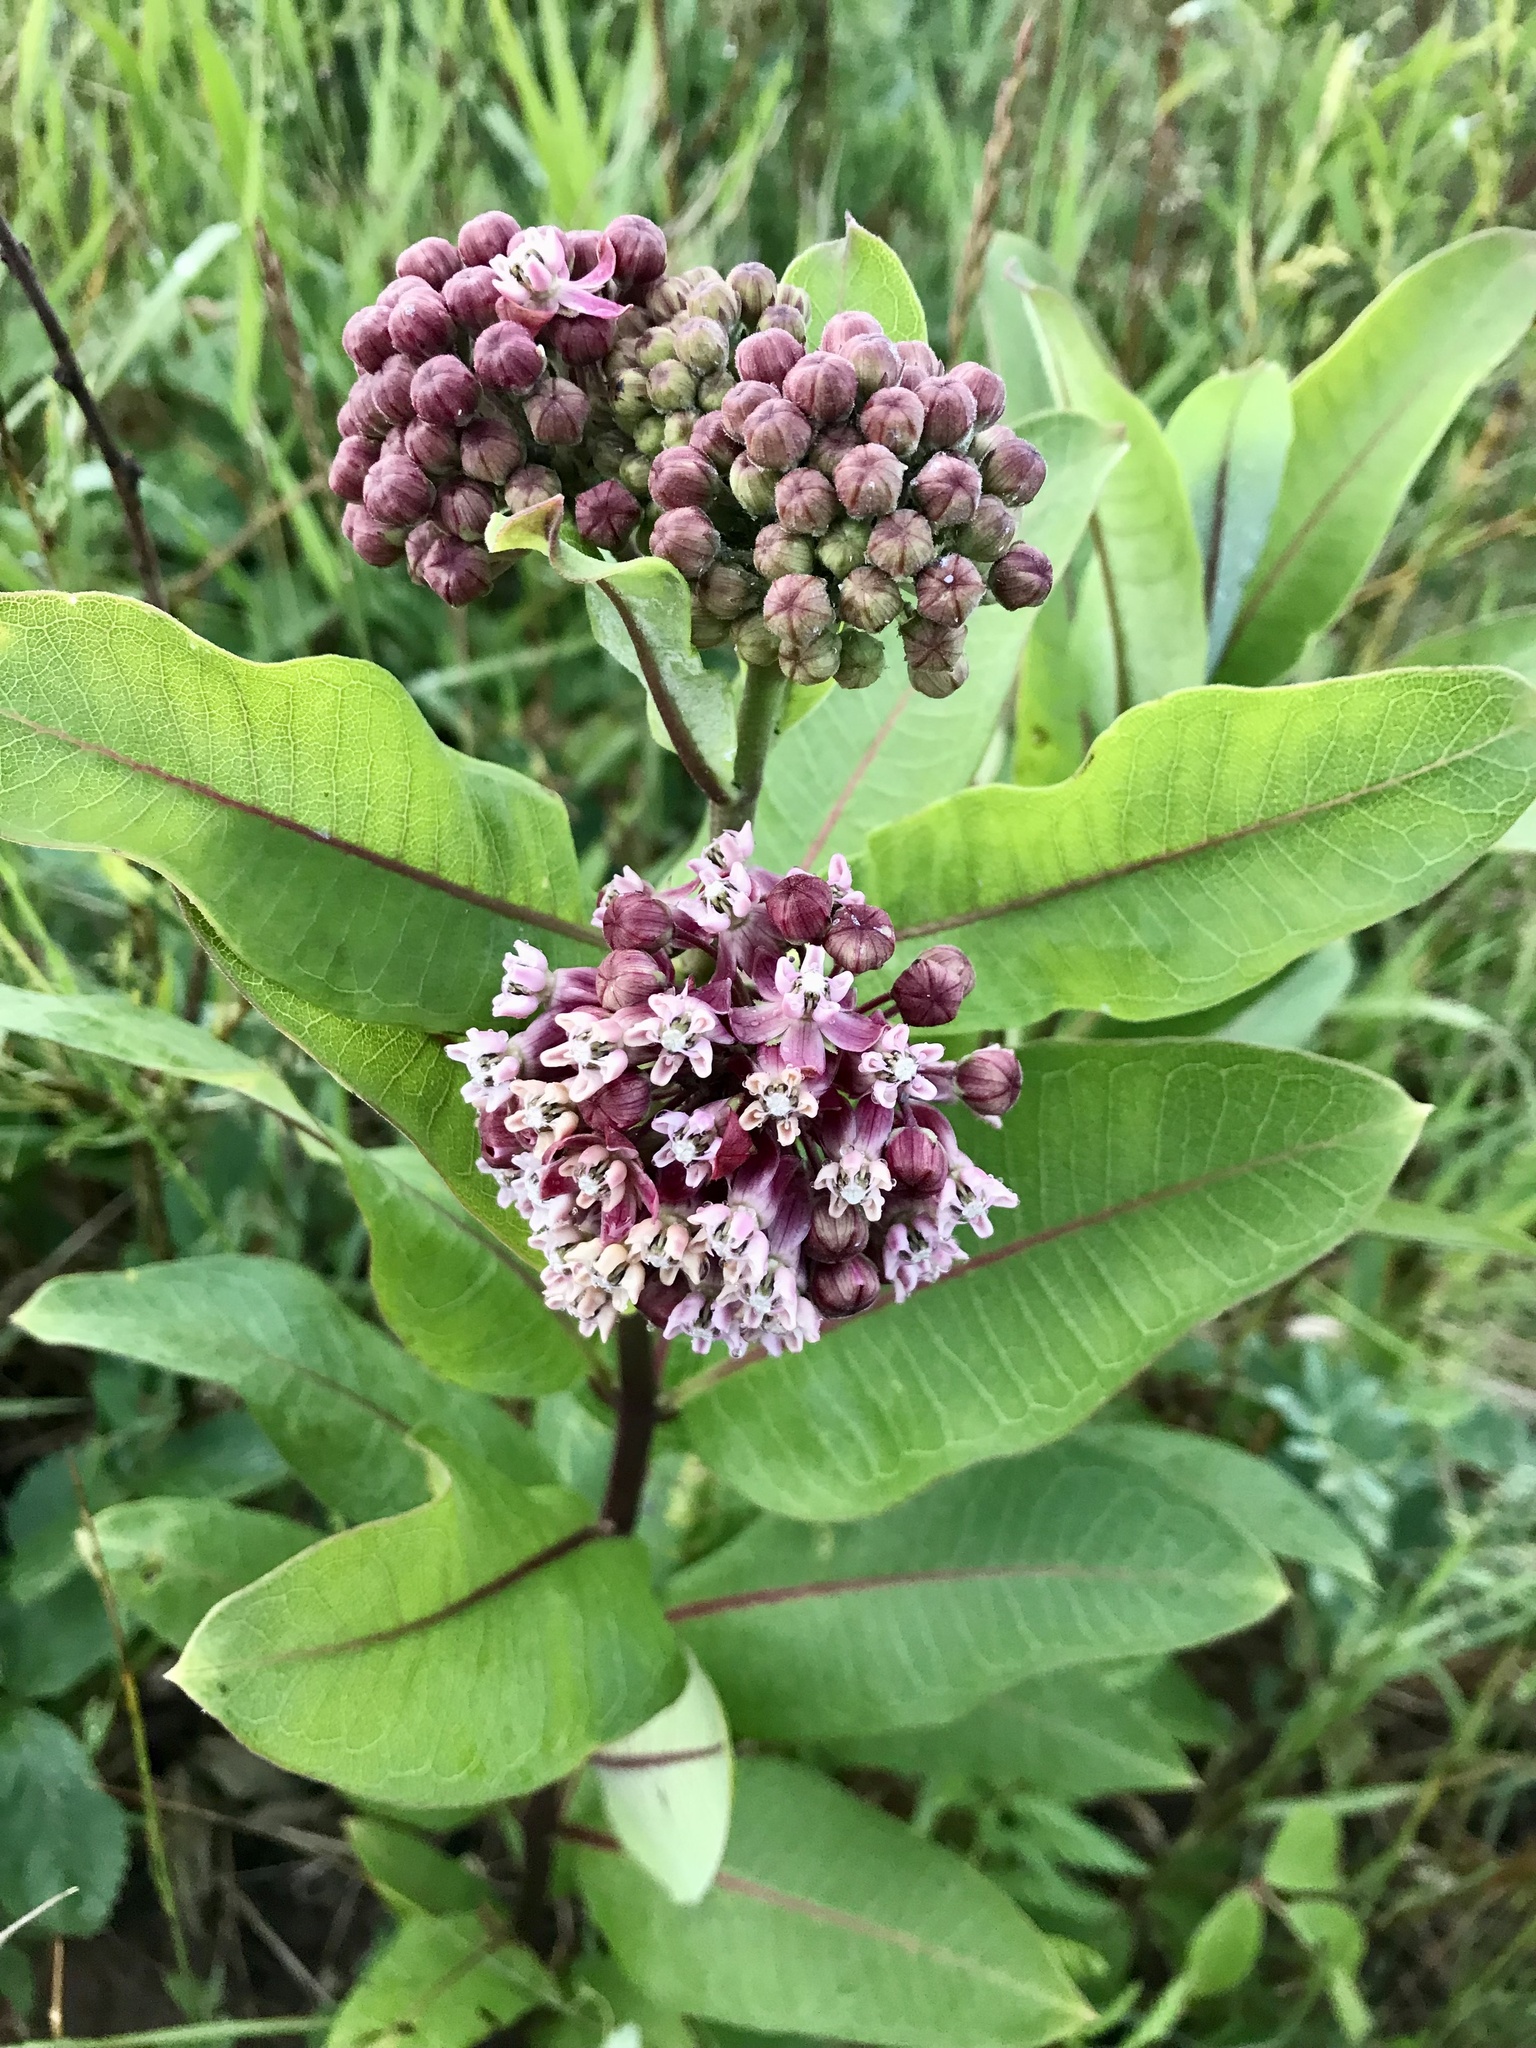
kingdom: Plantae
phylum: Tracheophyta
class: Magnoliopsida
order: Gentianales
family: Apocynaceae
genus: Asclepias
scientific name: Asclepias syriaca
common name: Common milkweed
